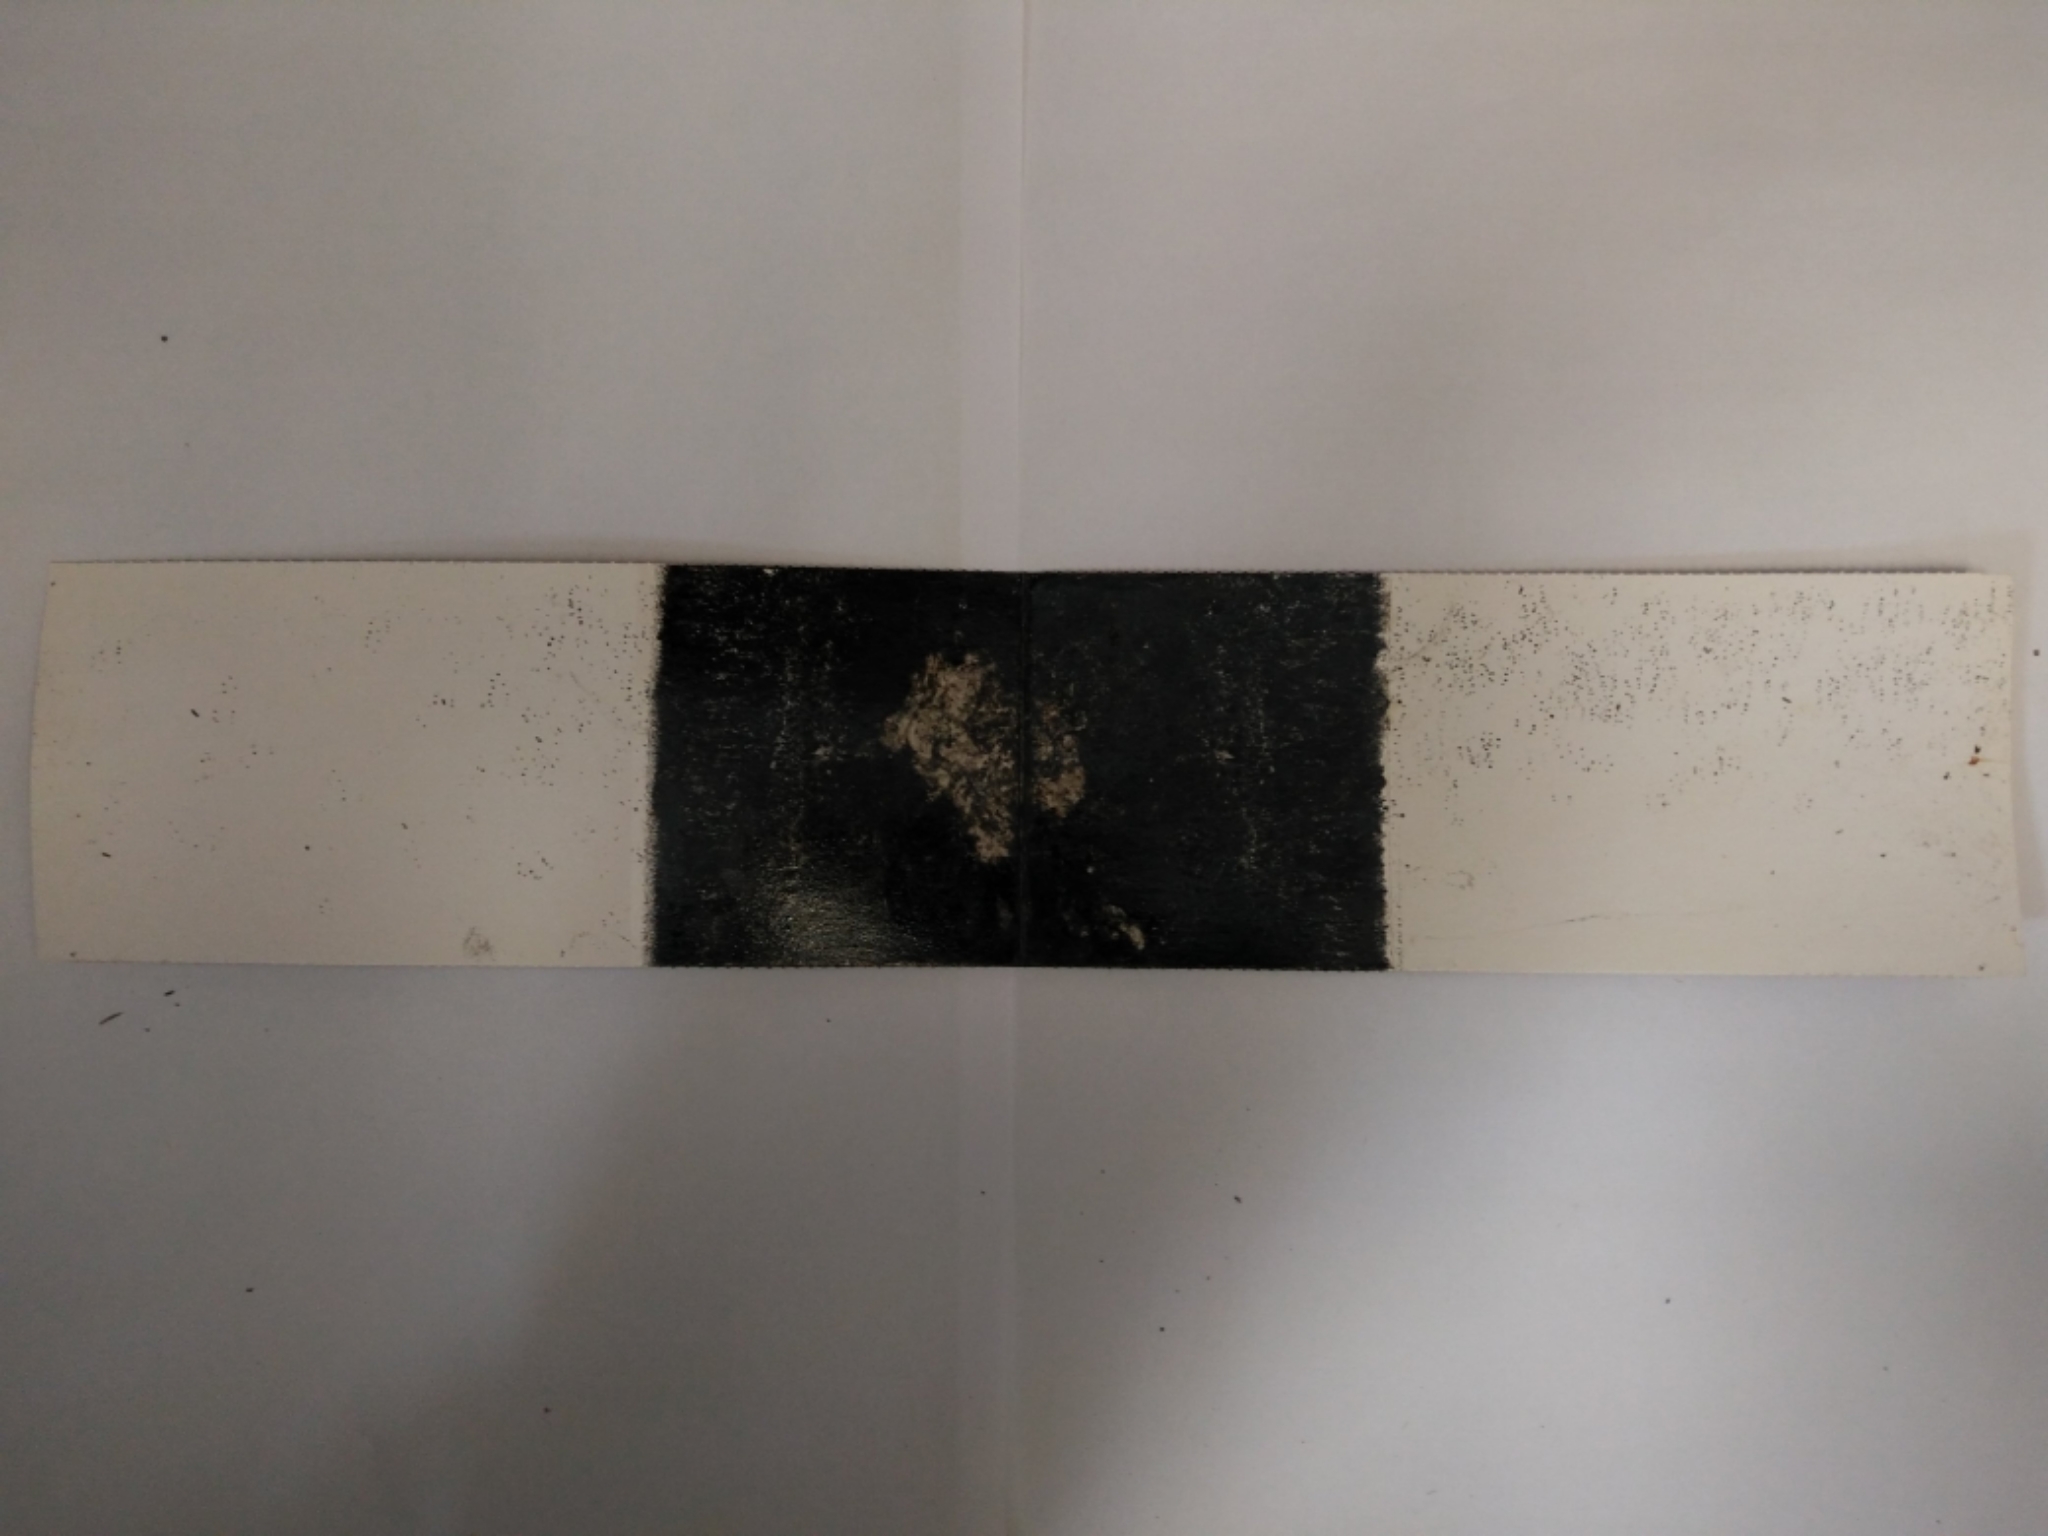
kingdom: Animalia
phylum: Chordata
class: Mammalia
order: Rodentia
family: Muridae
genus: Mus
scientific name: Mus musculus
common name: House mouse
